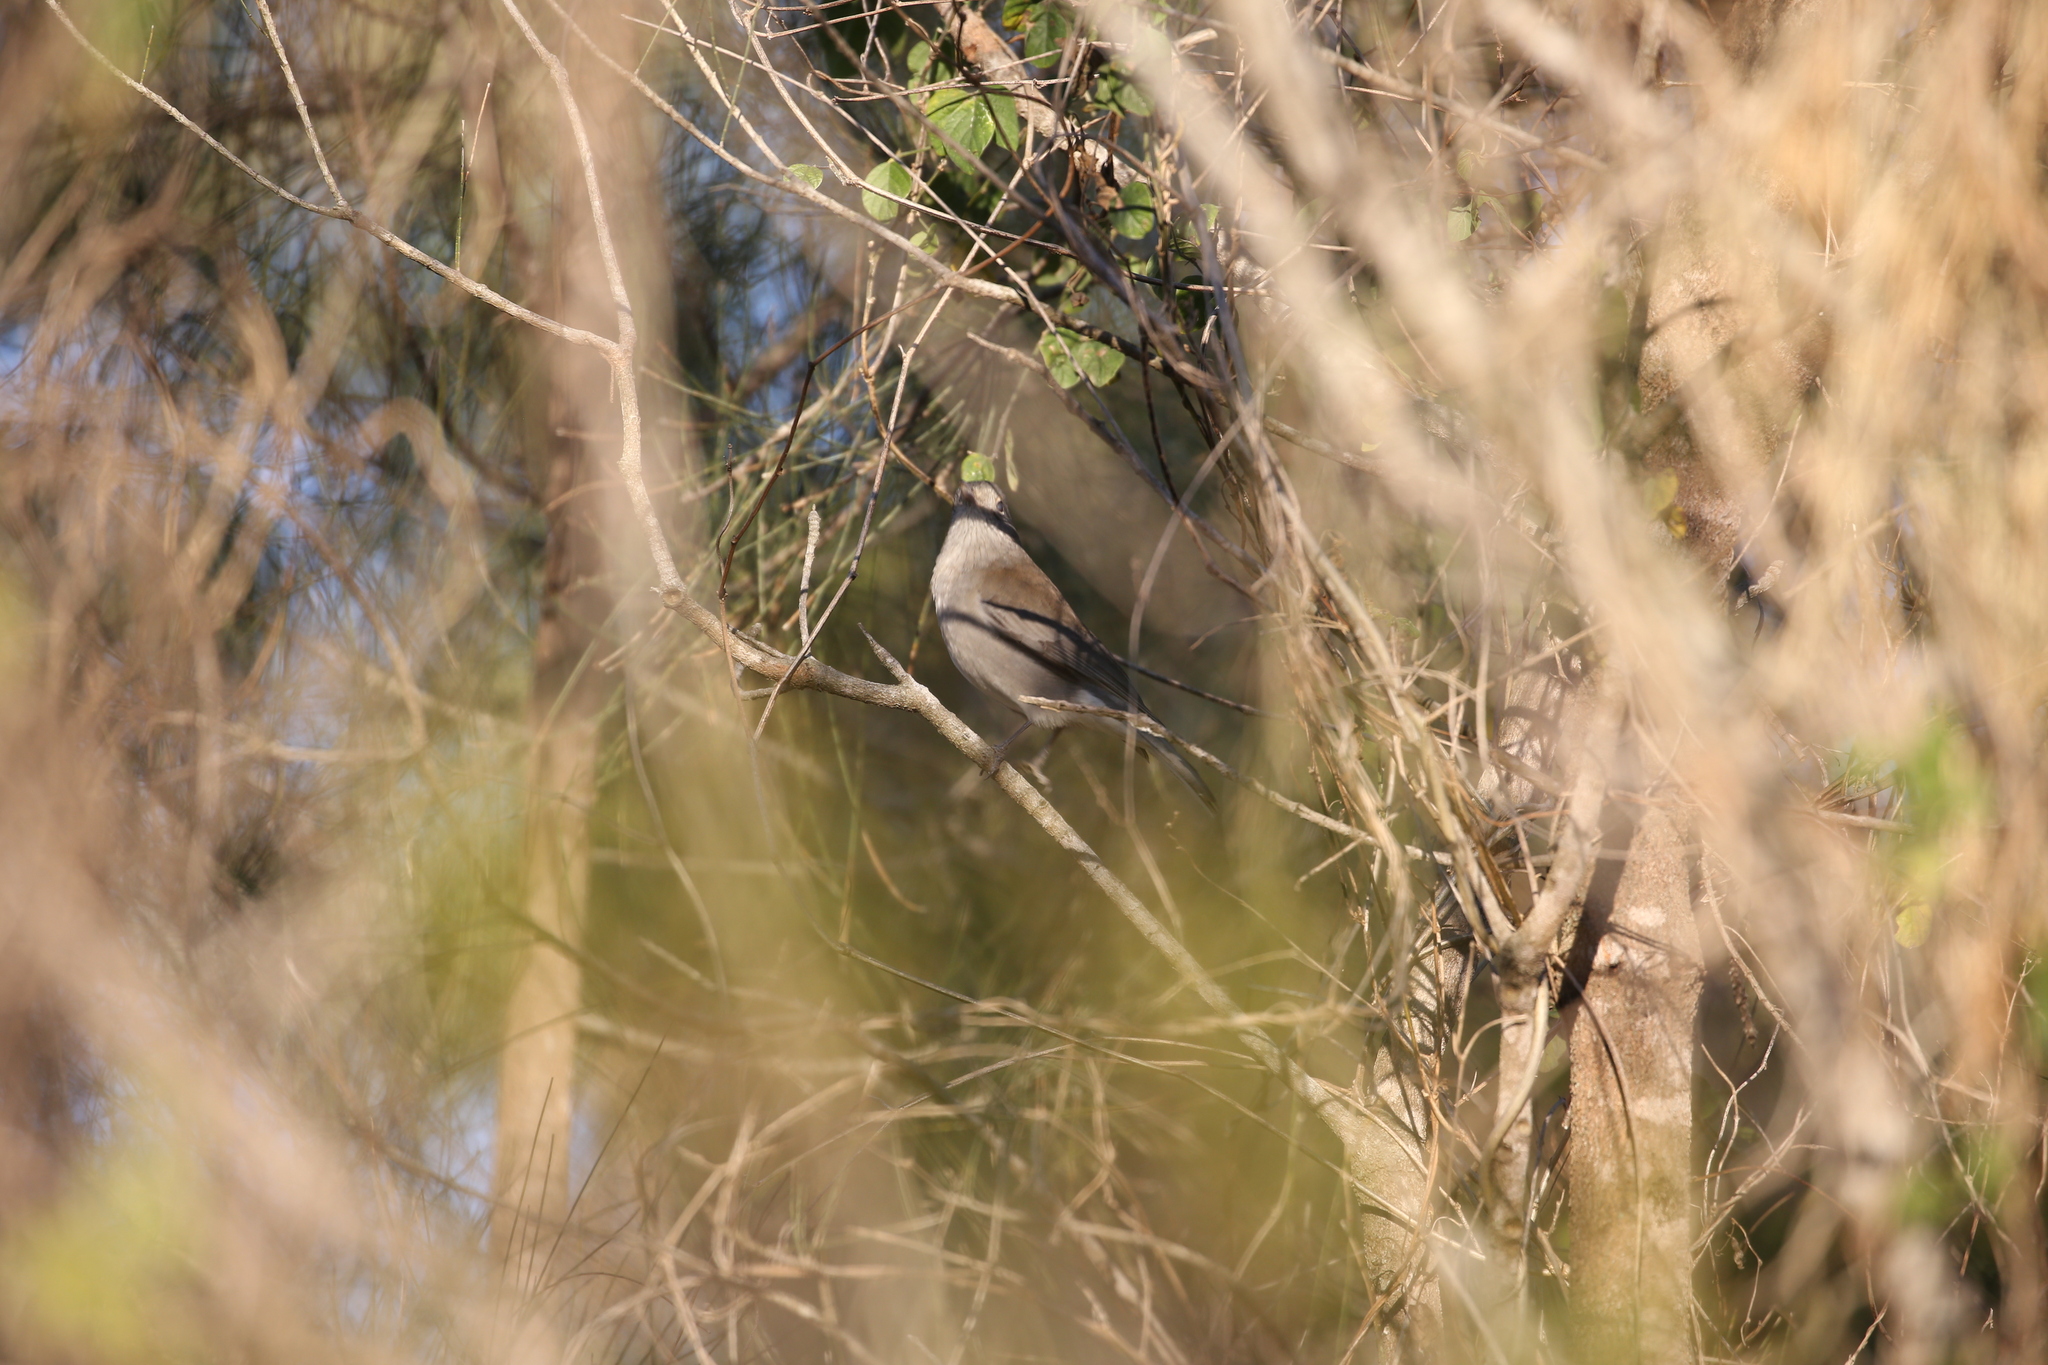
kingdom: Animalia
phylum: Chordata
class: Aves
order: Passeriformes
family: Pachycephalidae
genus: Colluricincla
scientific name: Colluricincla harmonica
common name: Grey shrikethrush
